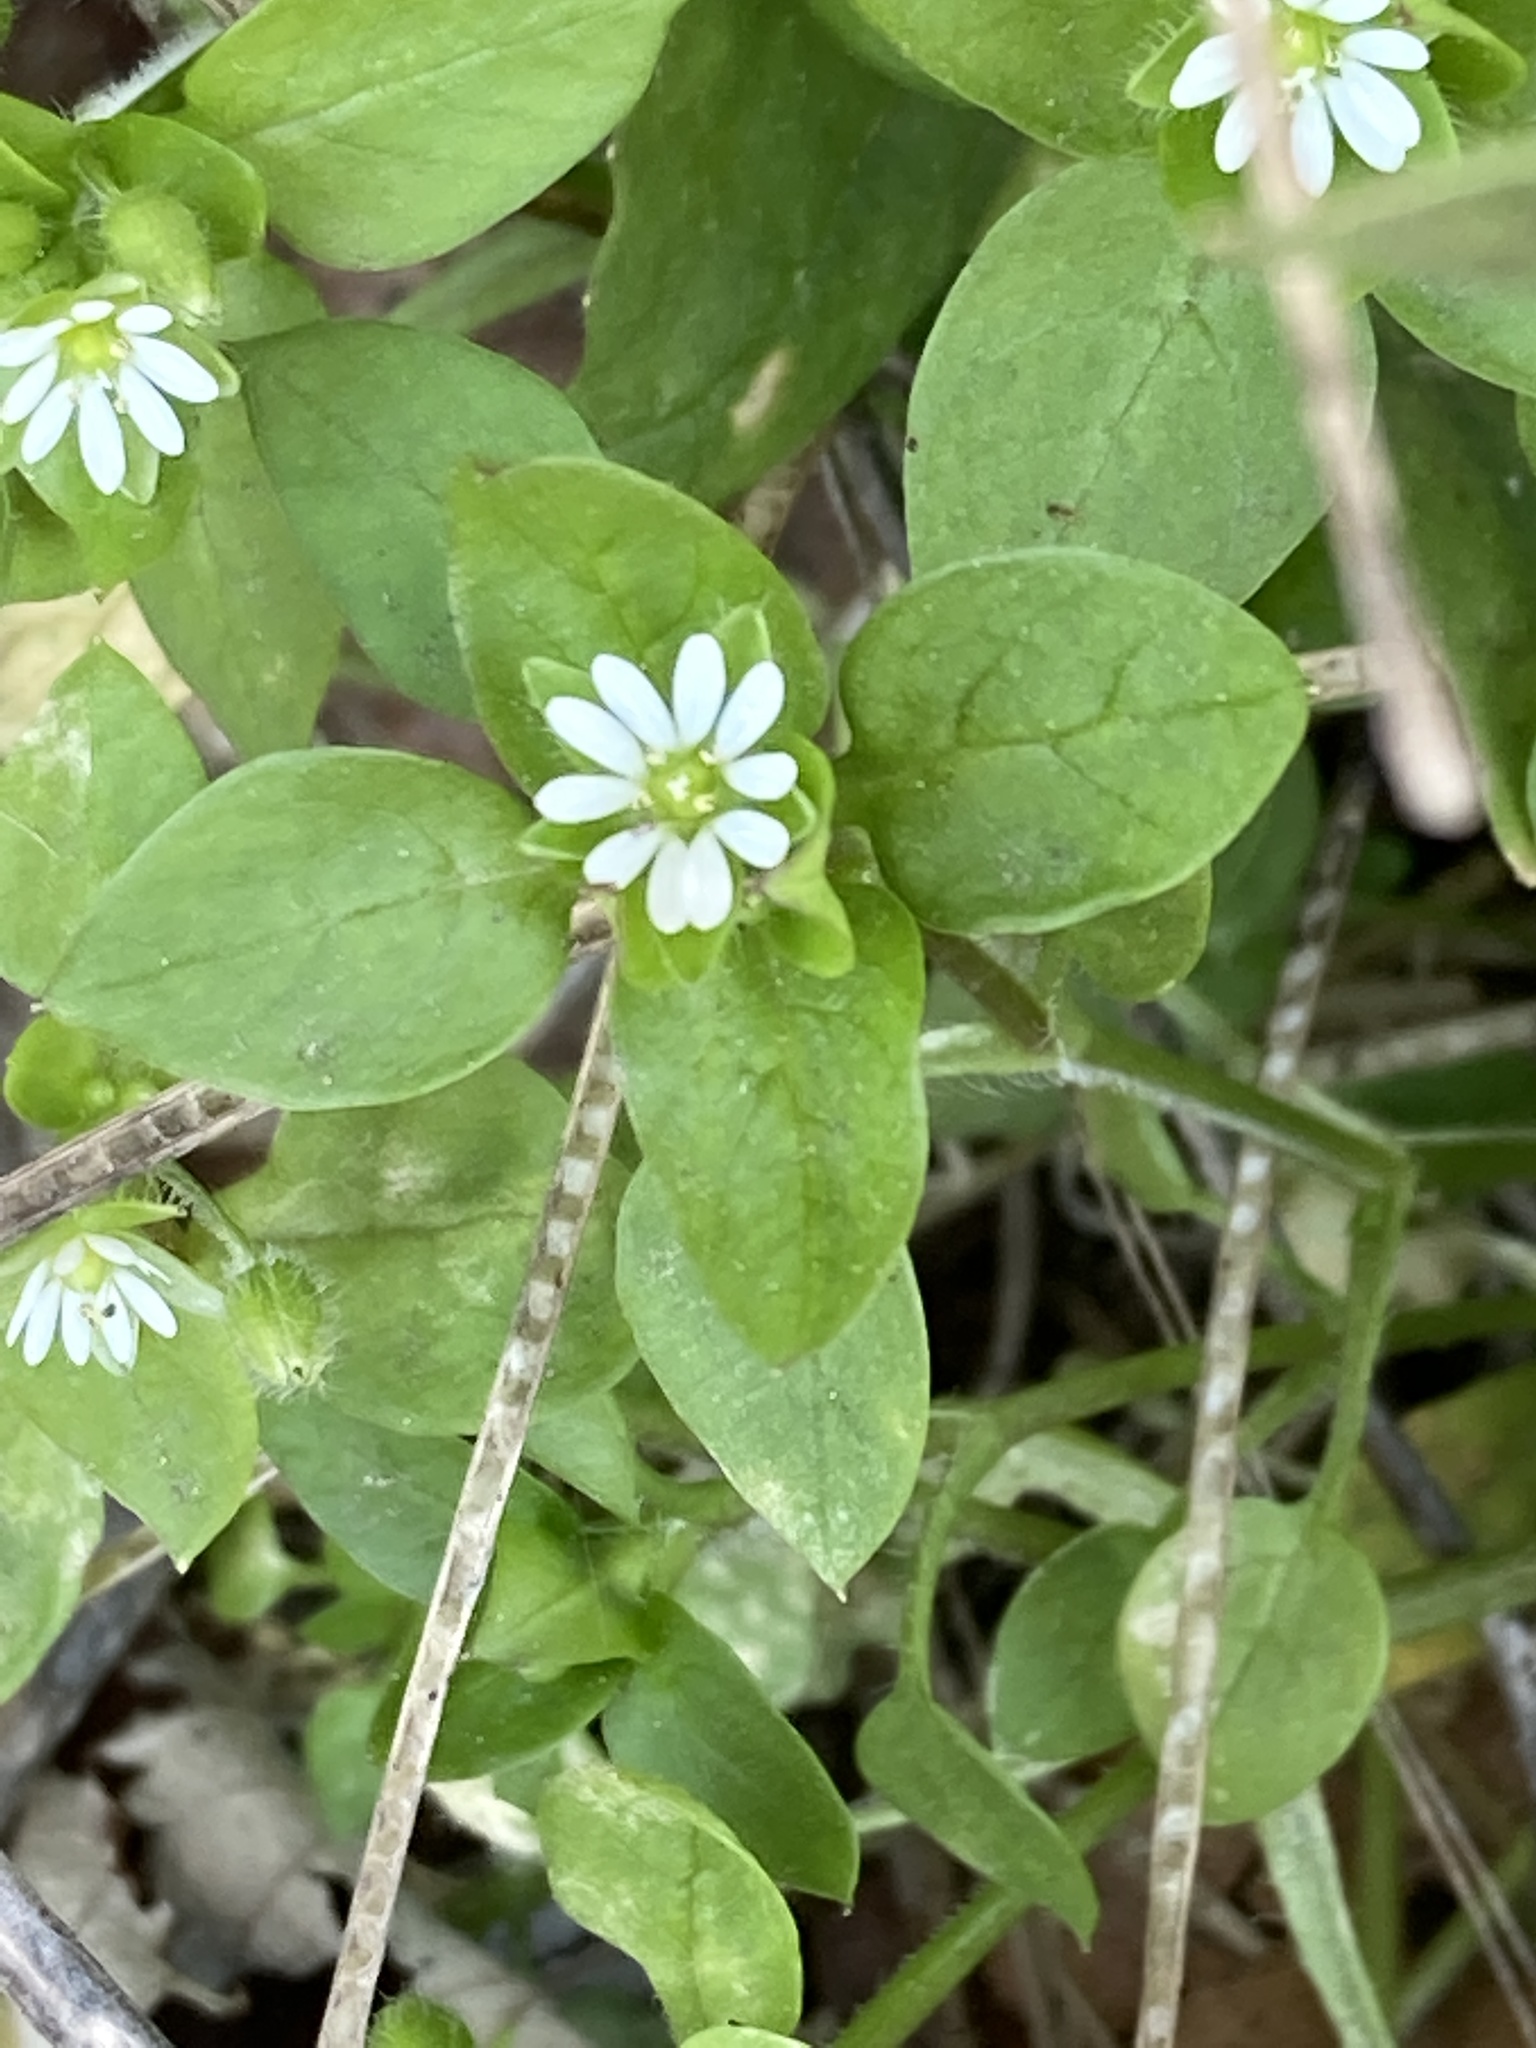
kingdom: Plantae
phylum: Tracheophyta
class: Magnoliopsida
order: Caryophyllales
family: Caryophyllaceae
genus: Stellaria
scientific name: Stellaria media
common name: Common chickweed
